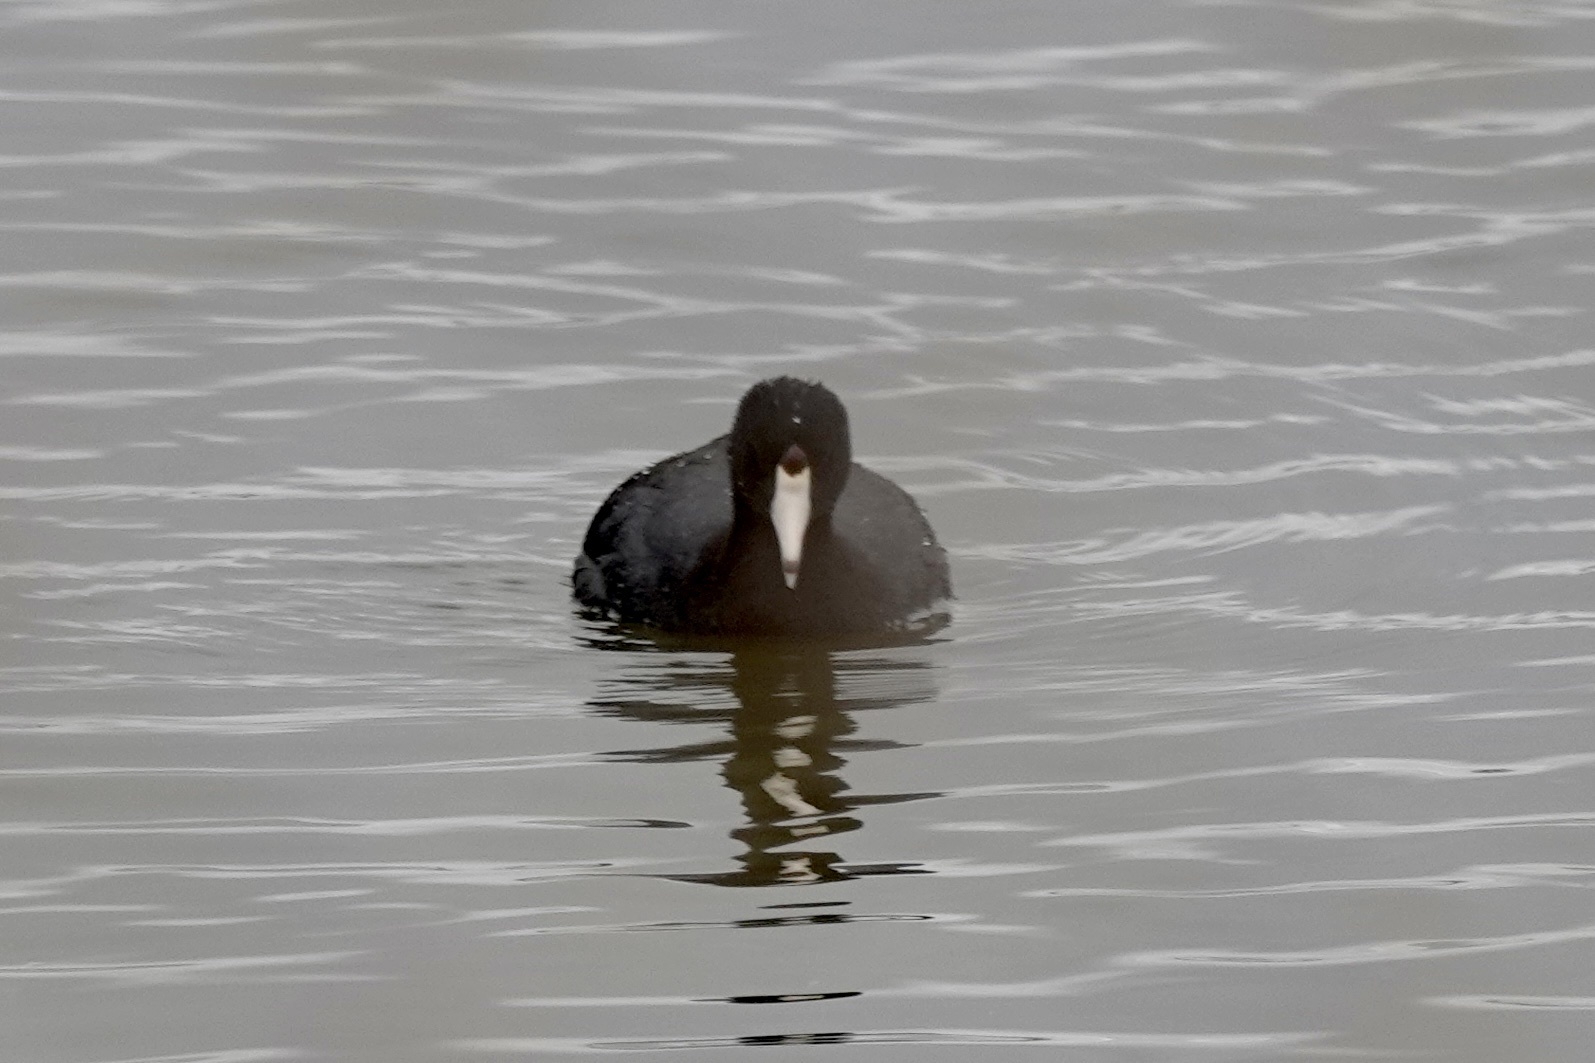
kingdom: Animalia
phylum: Chordata
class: Aves
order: Gruiformes
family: Rallidae
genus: Fulica
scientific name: Fulica americana
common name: American coot
